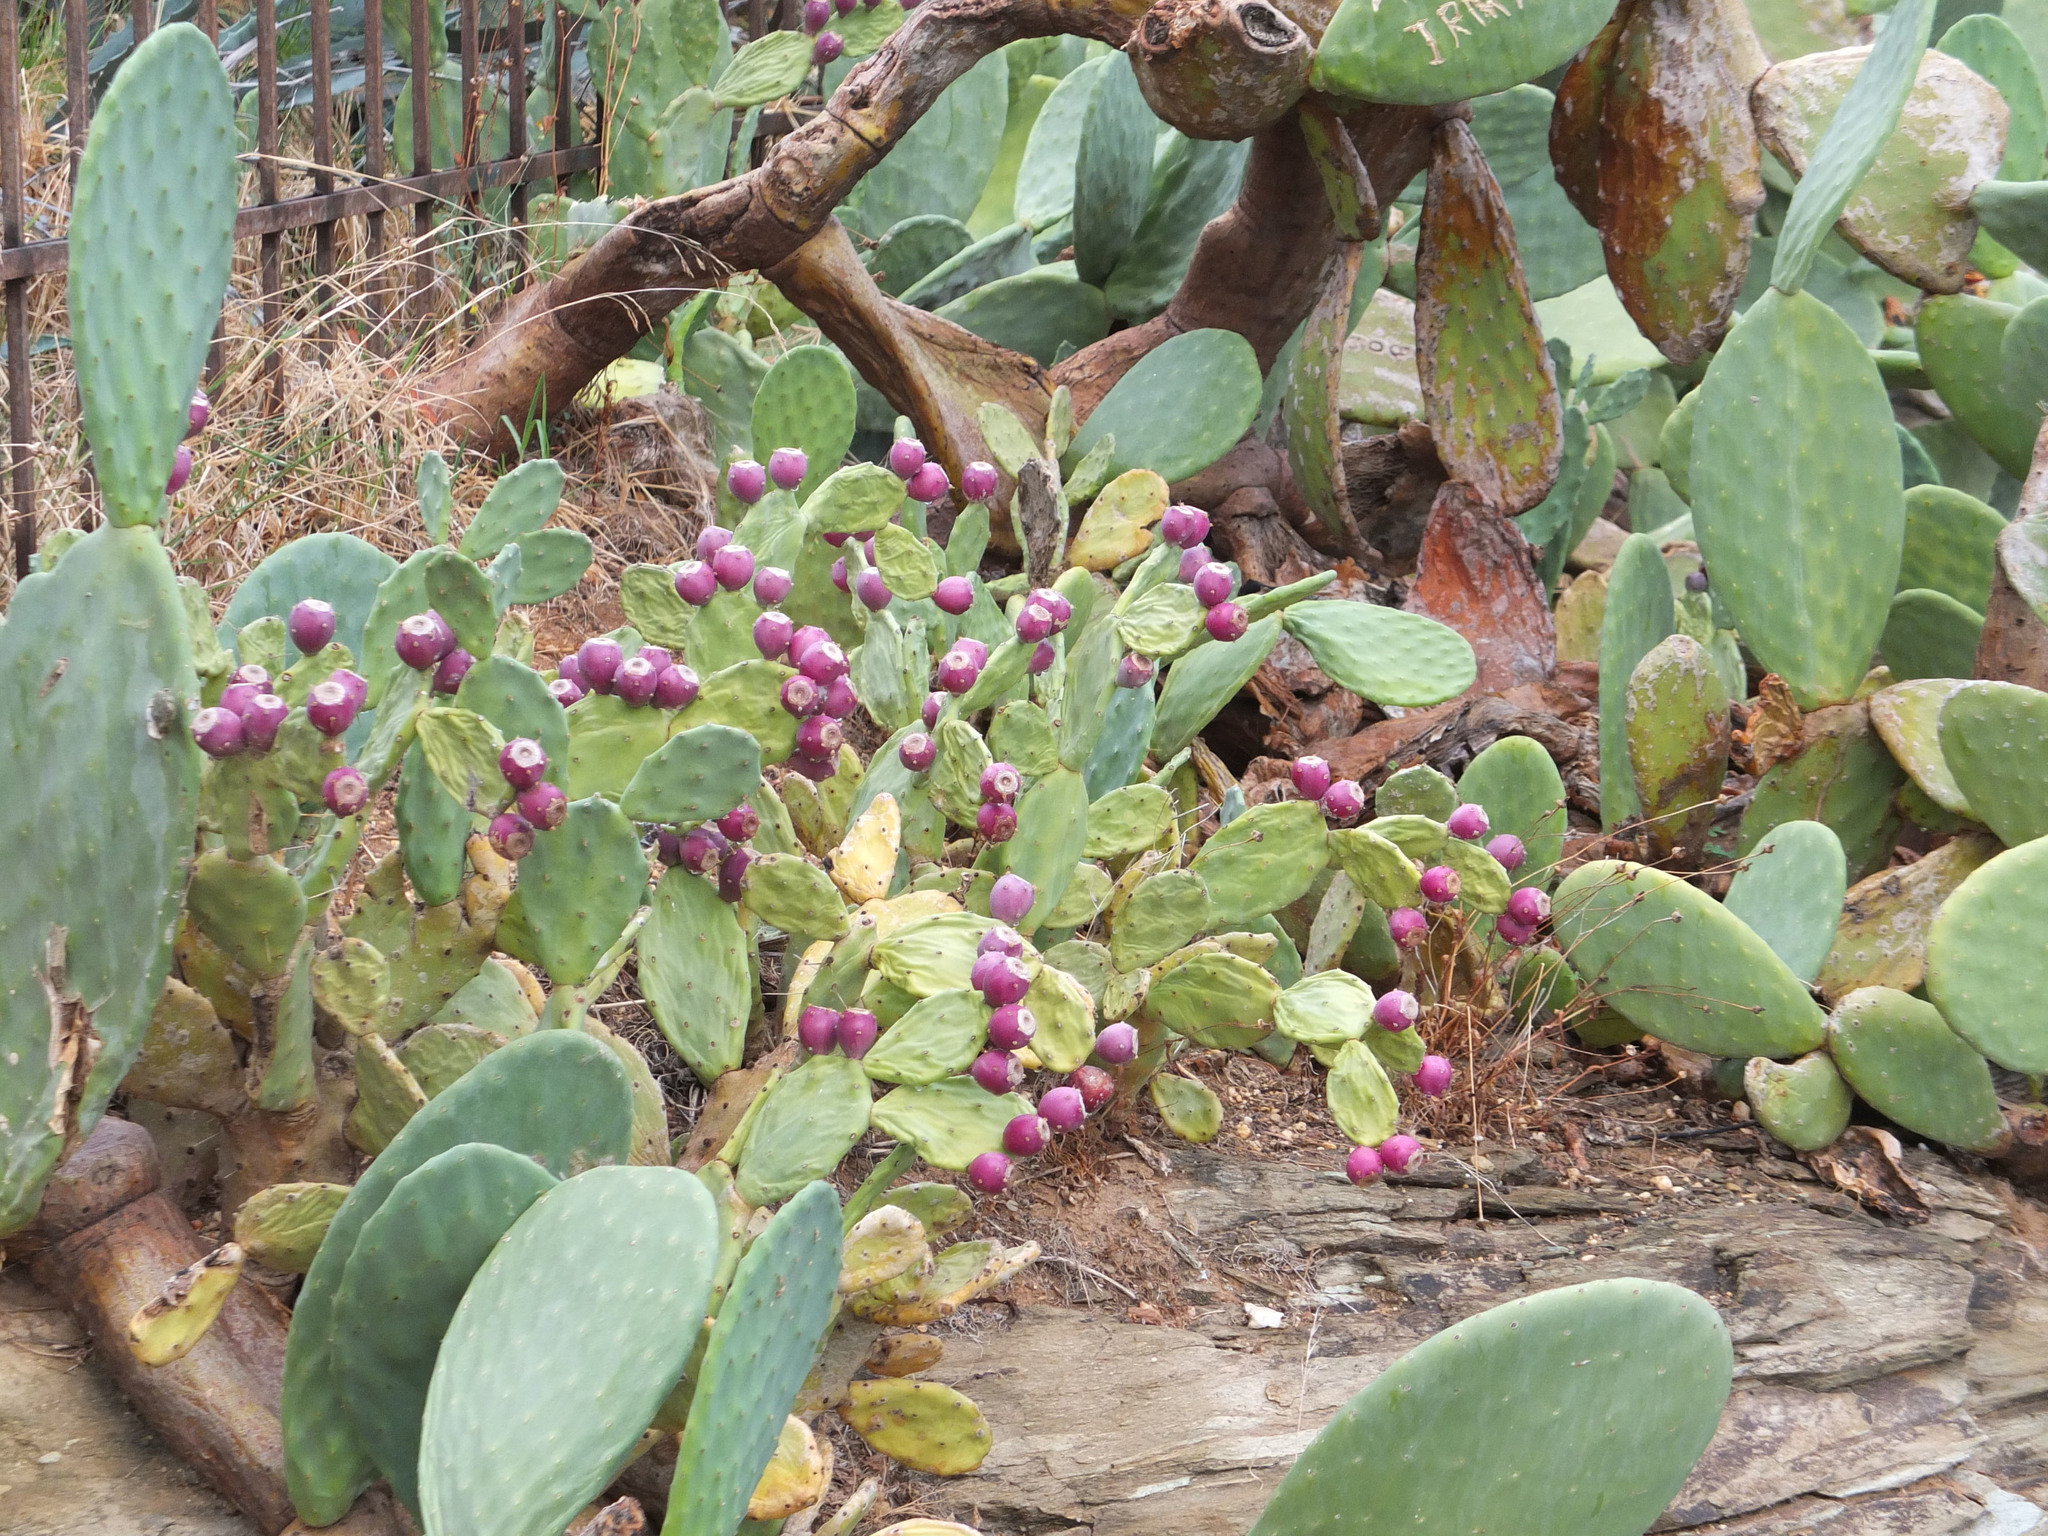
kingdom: Plantae
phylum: Tracheophyta
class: Magnoliopsida
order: Caryophyllales
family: Cactaceae
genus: Opuntia
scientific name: Opuntia stricta
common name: Erect pricklypear
